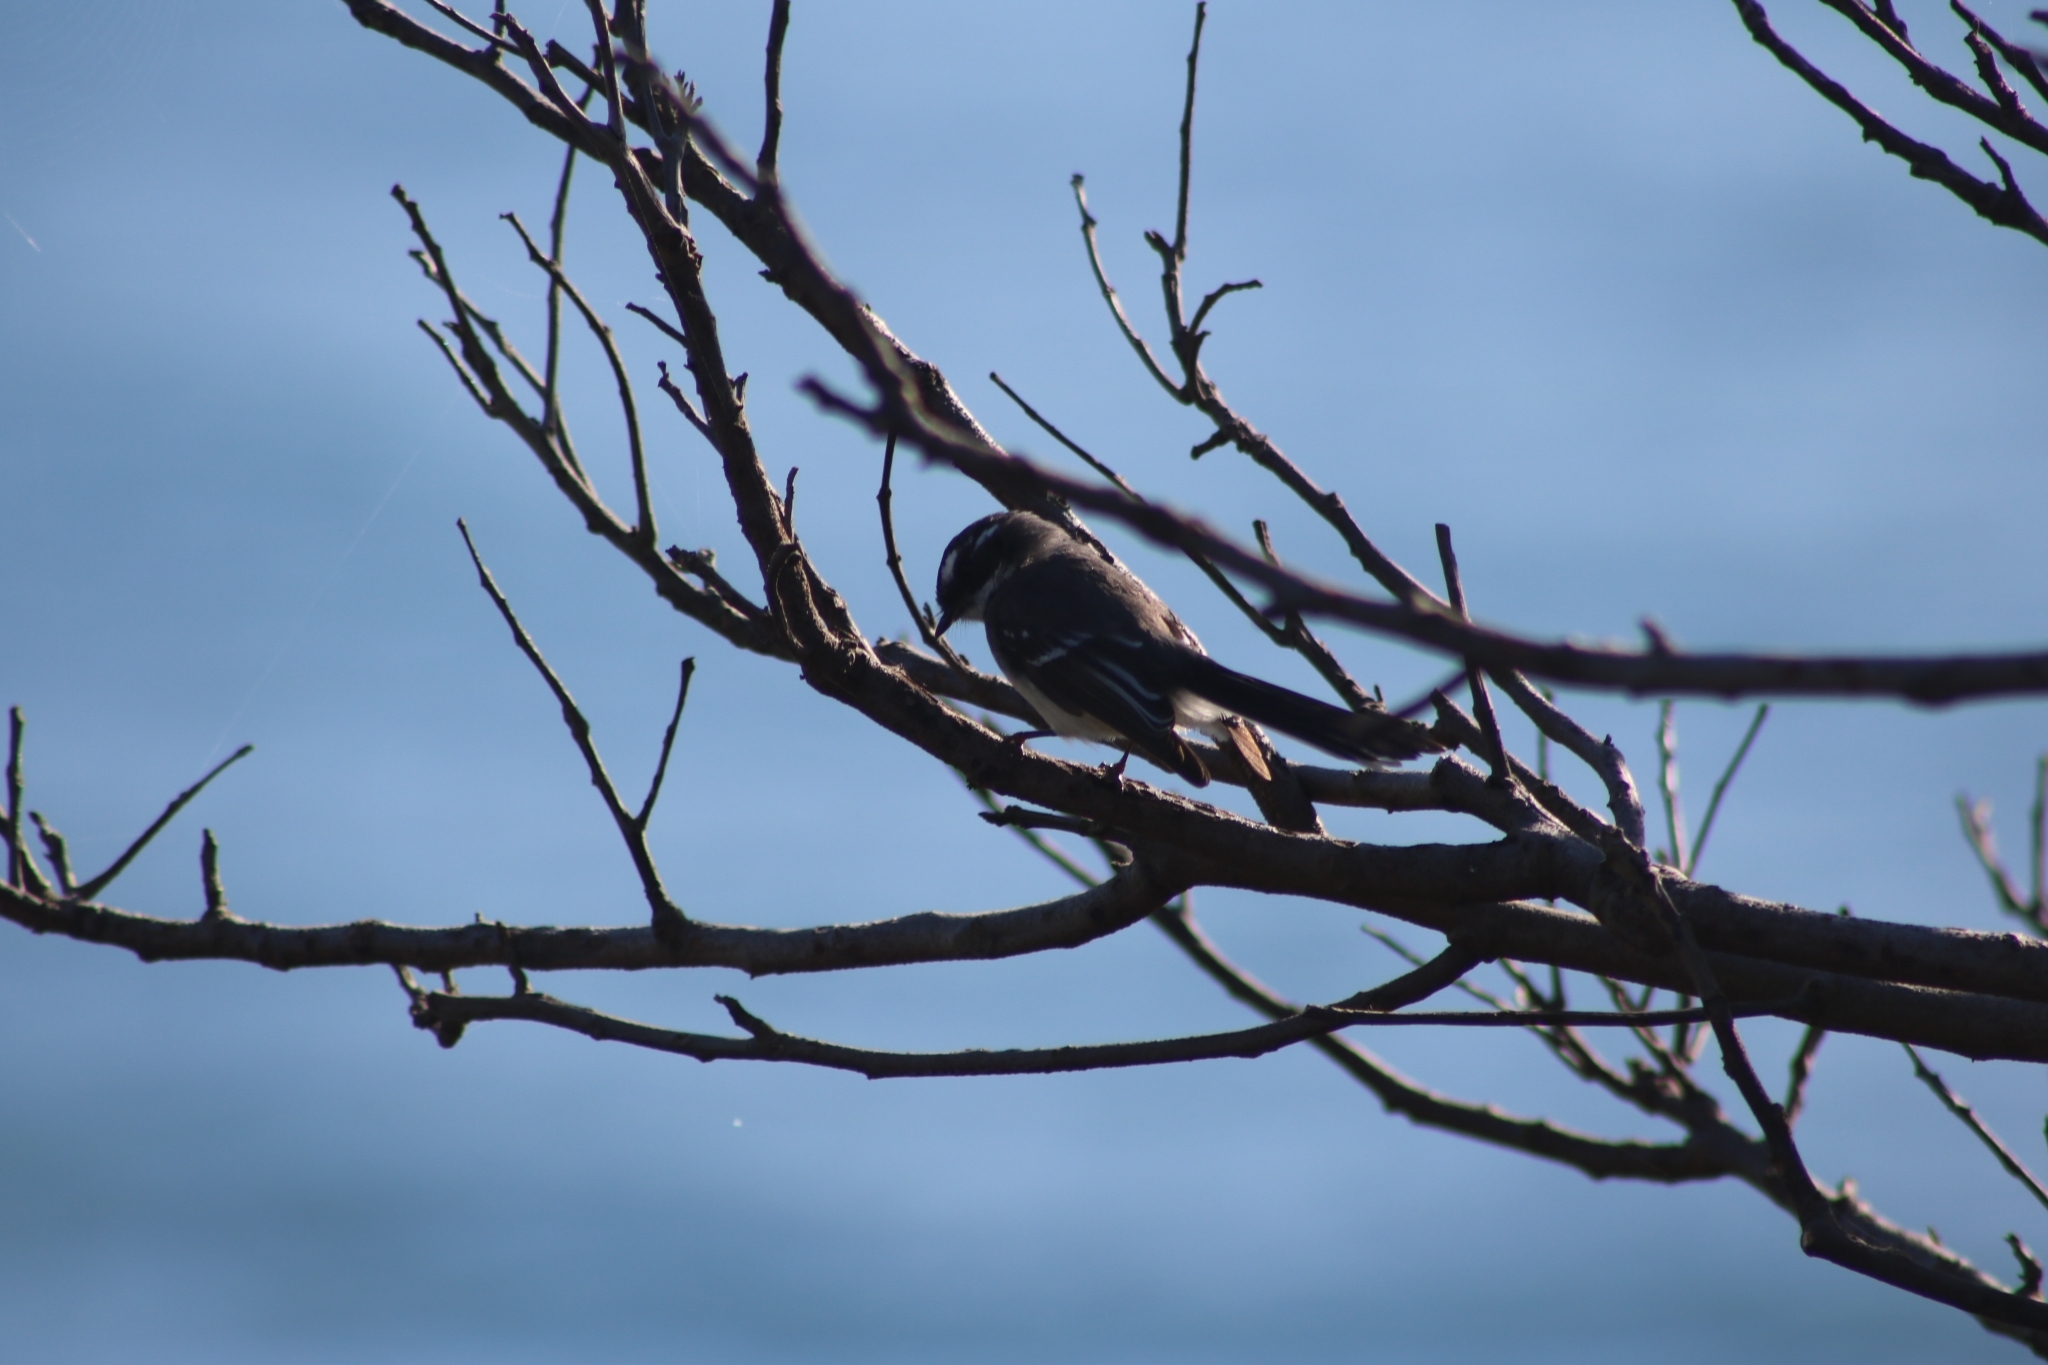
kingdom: Animalia
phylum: Chordata
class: Aves
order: Passeriformes
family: Rhipiduridae
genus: Rhipidura
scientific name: Rhipidura albiscapa
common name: Grey fantail
